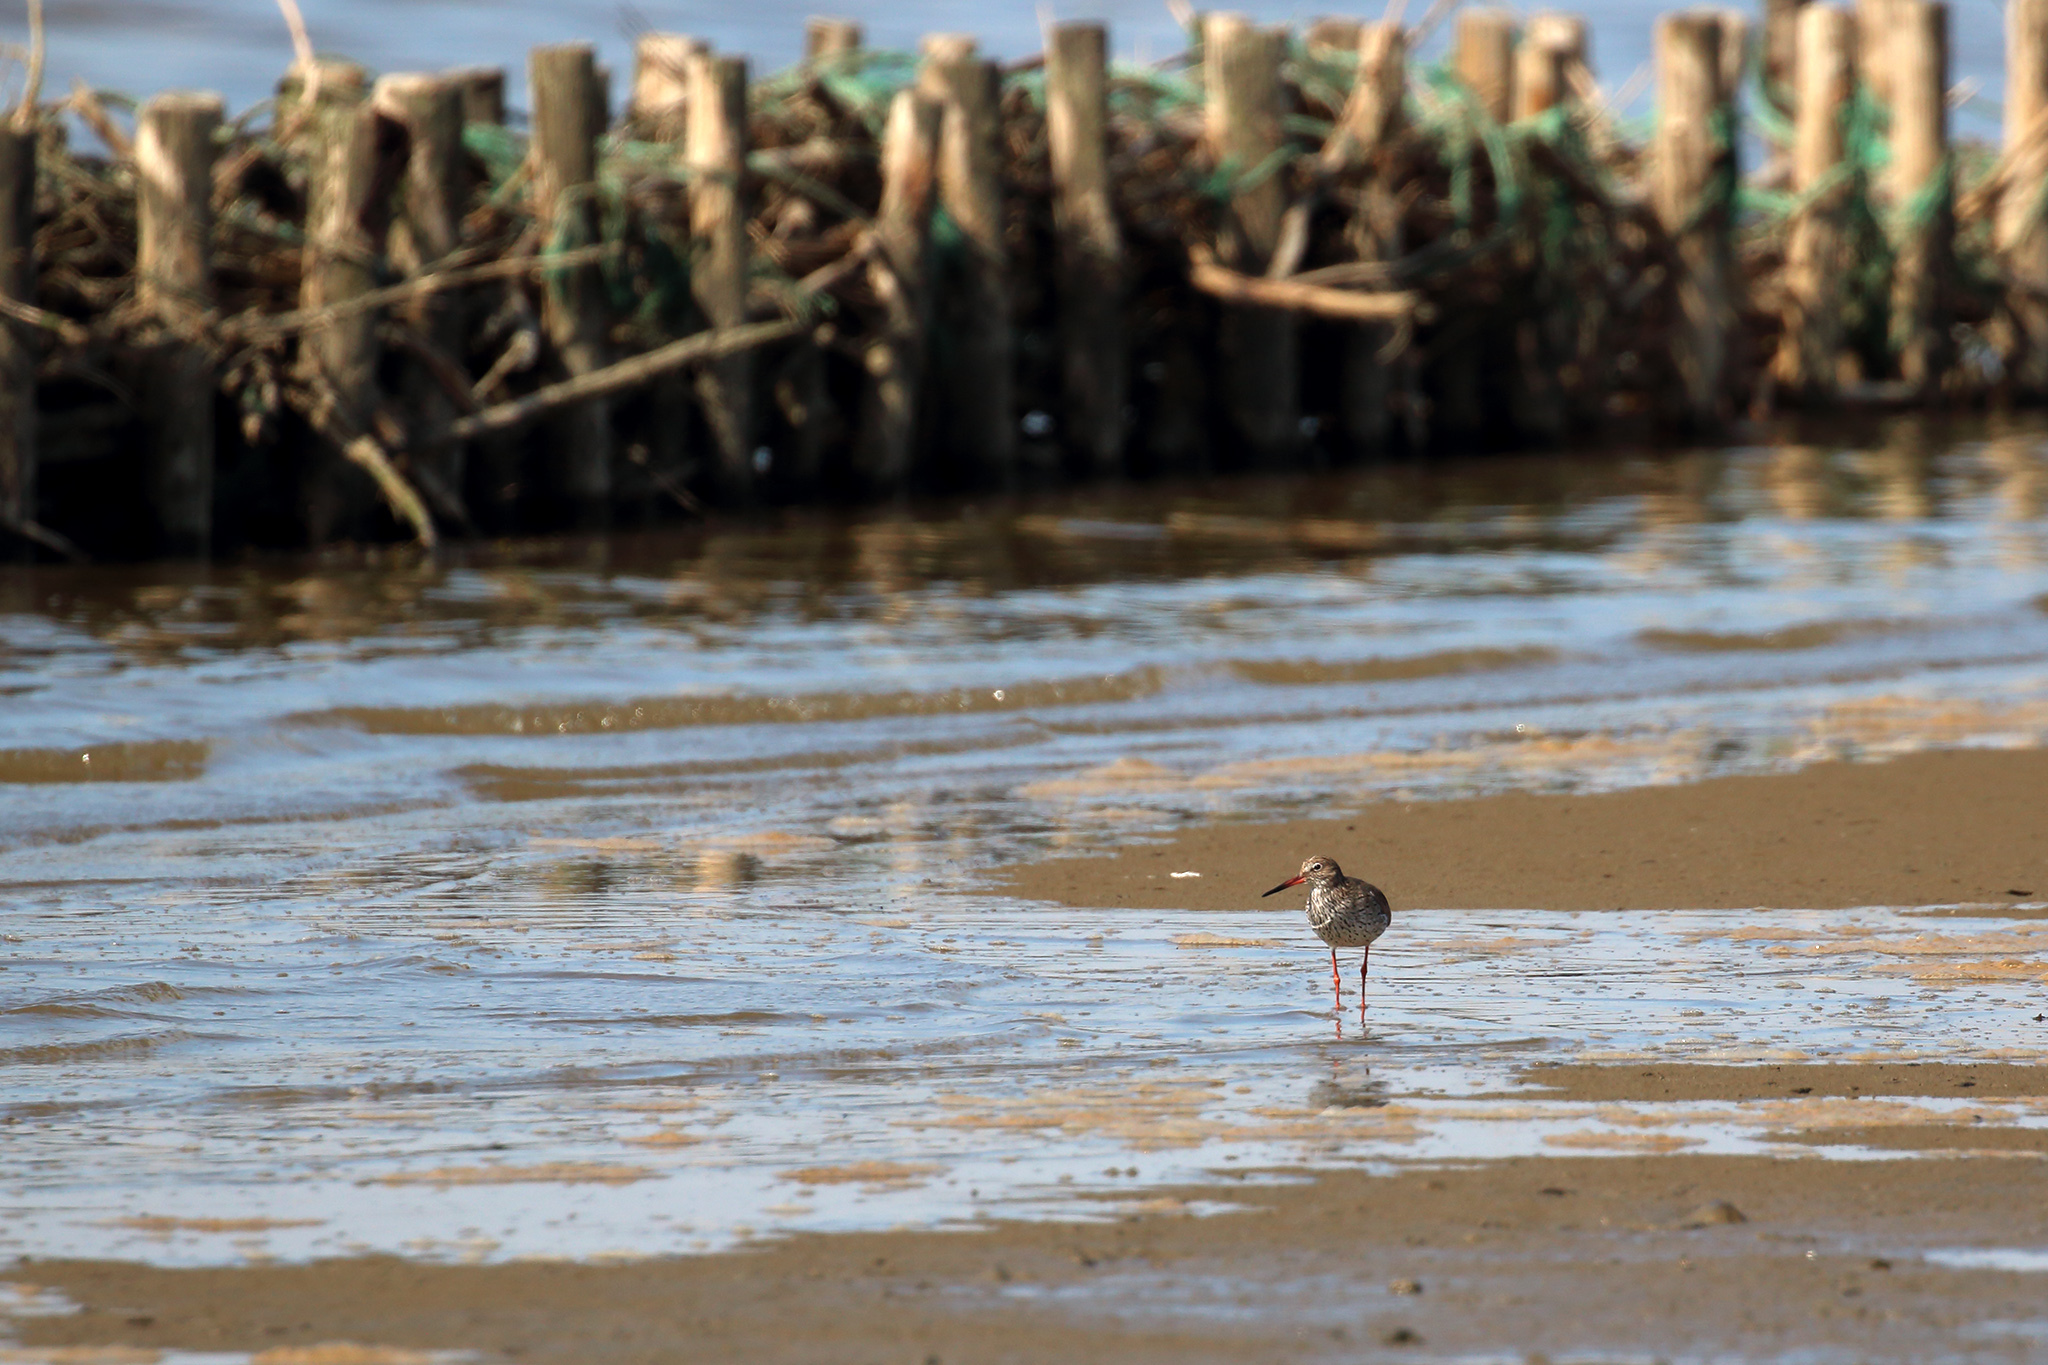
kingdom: Animalia
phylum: Chordata
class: Aves
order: Charadriiformes
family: Scolopacidae
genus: Tringa
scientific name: Tringa totanus
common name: Common redshank
